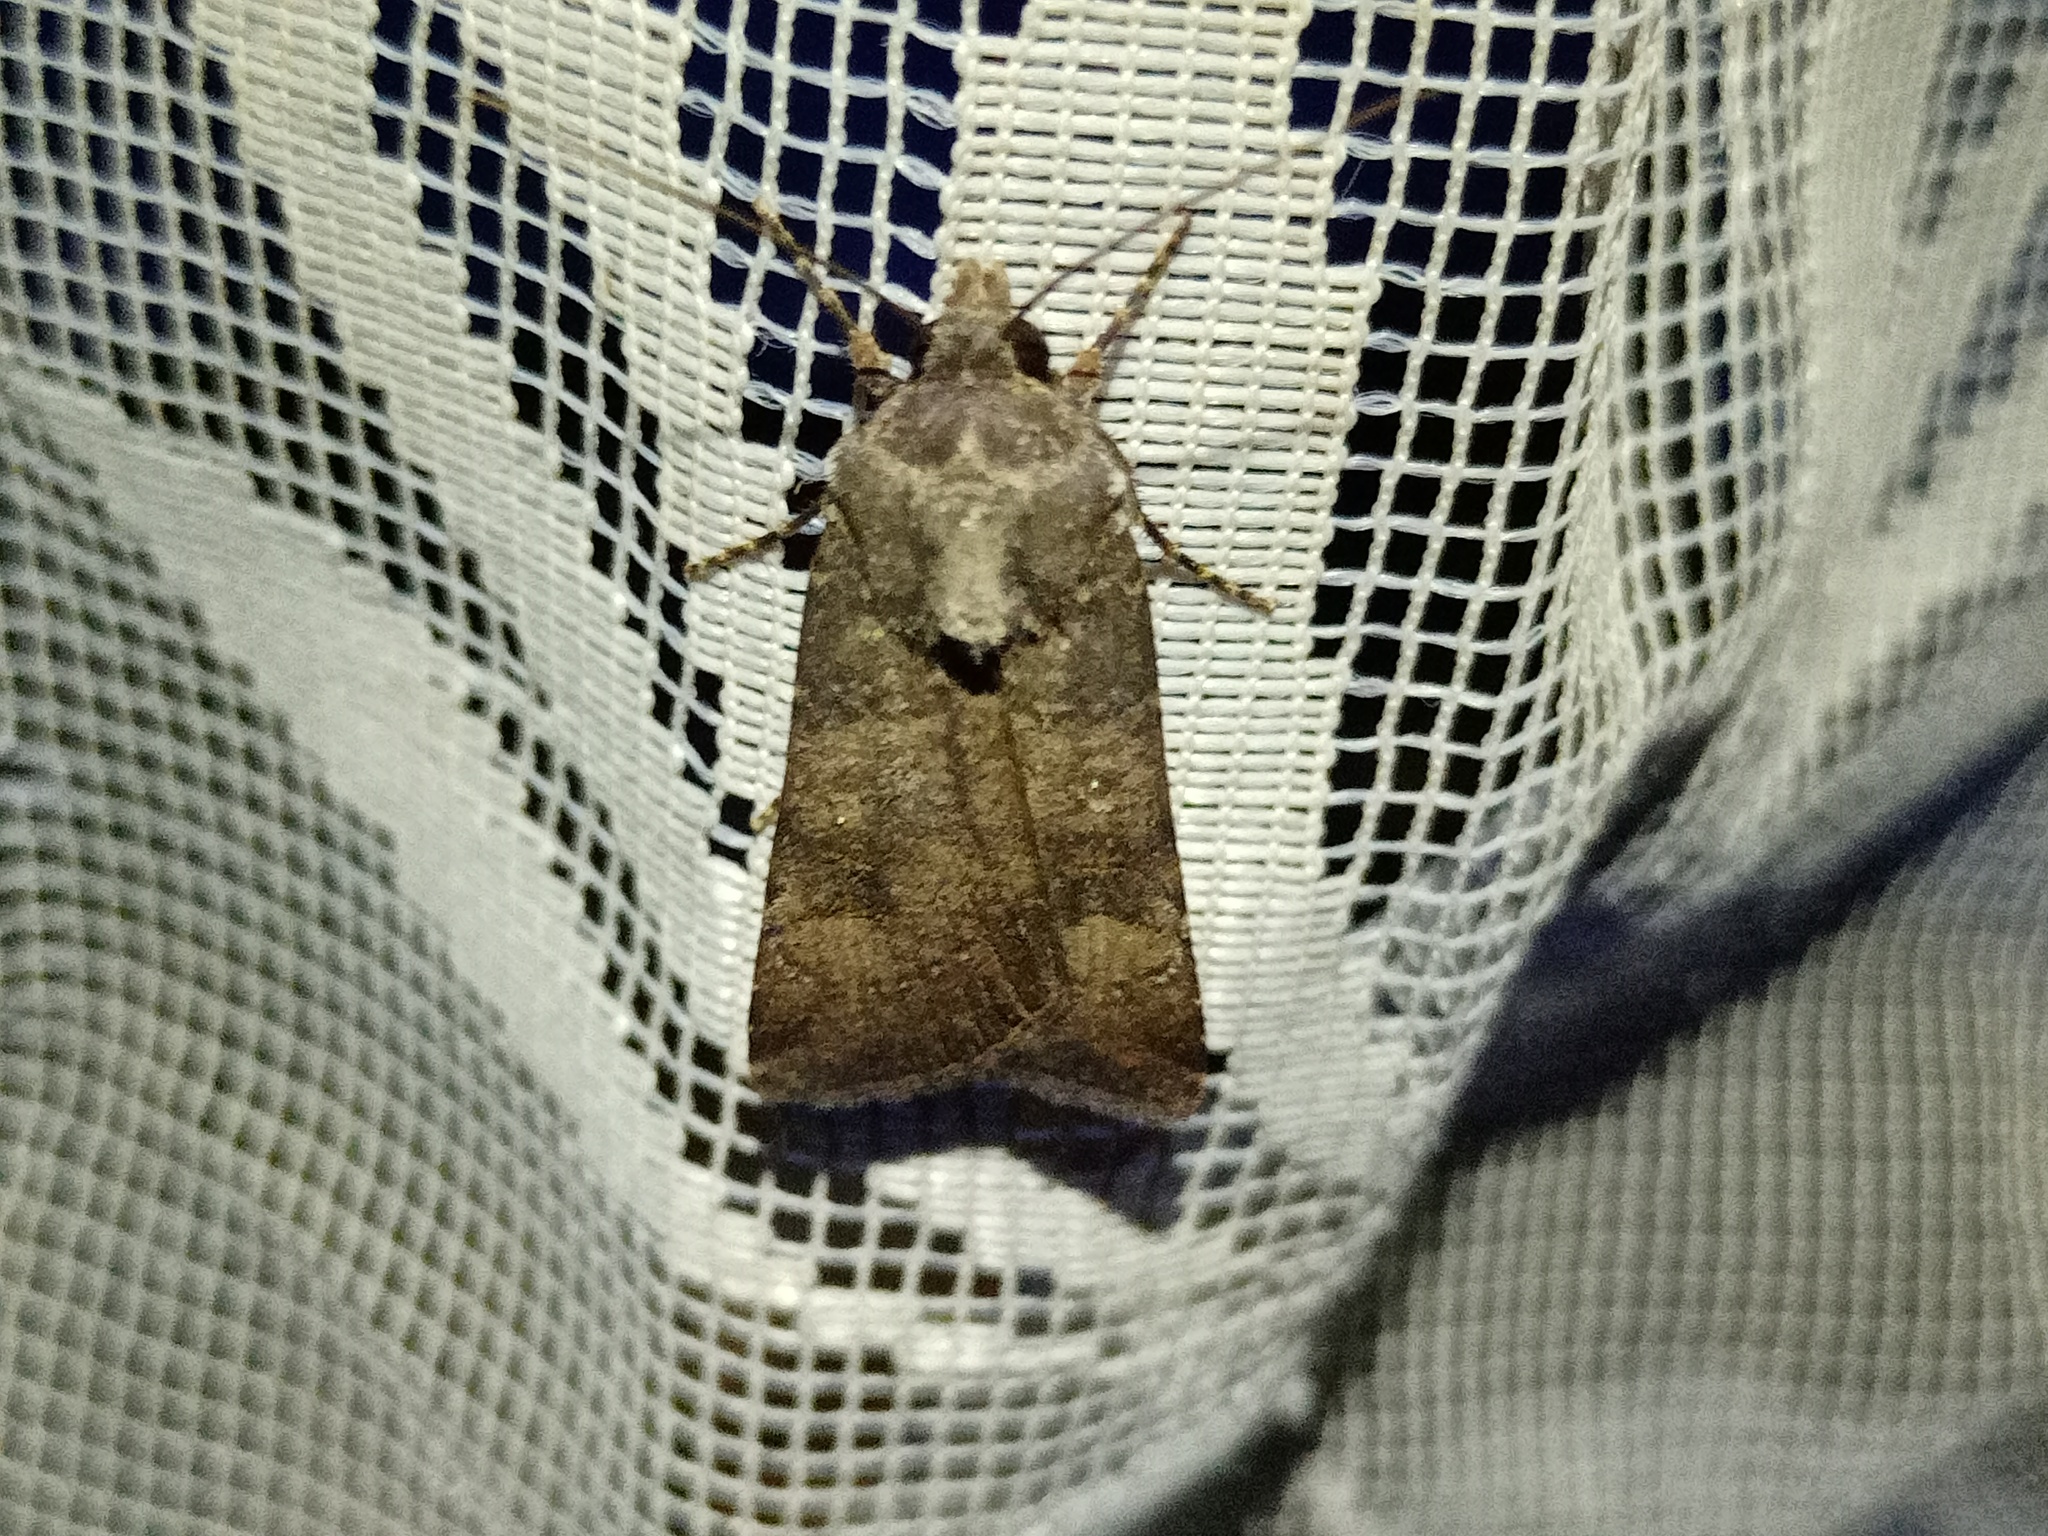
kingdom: Animalia
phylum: Arthropoda
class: Insecta
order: Lepidoptera
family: Noctuidae
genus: Agrotis
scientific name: Agrotis trux
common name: Crescent dart
